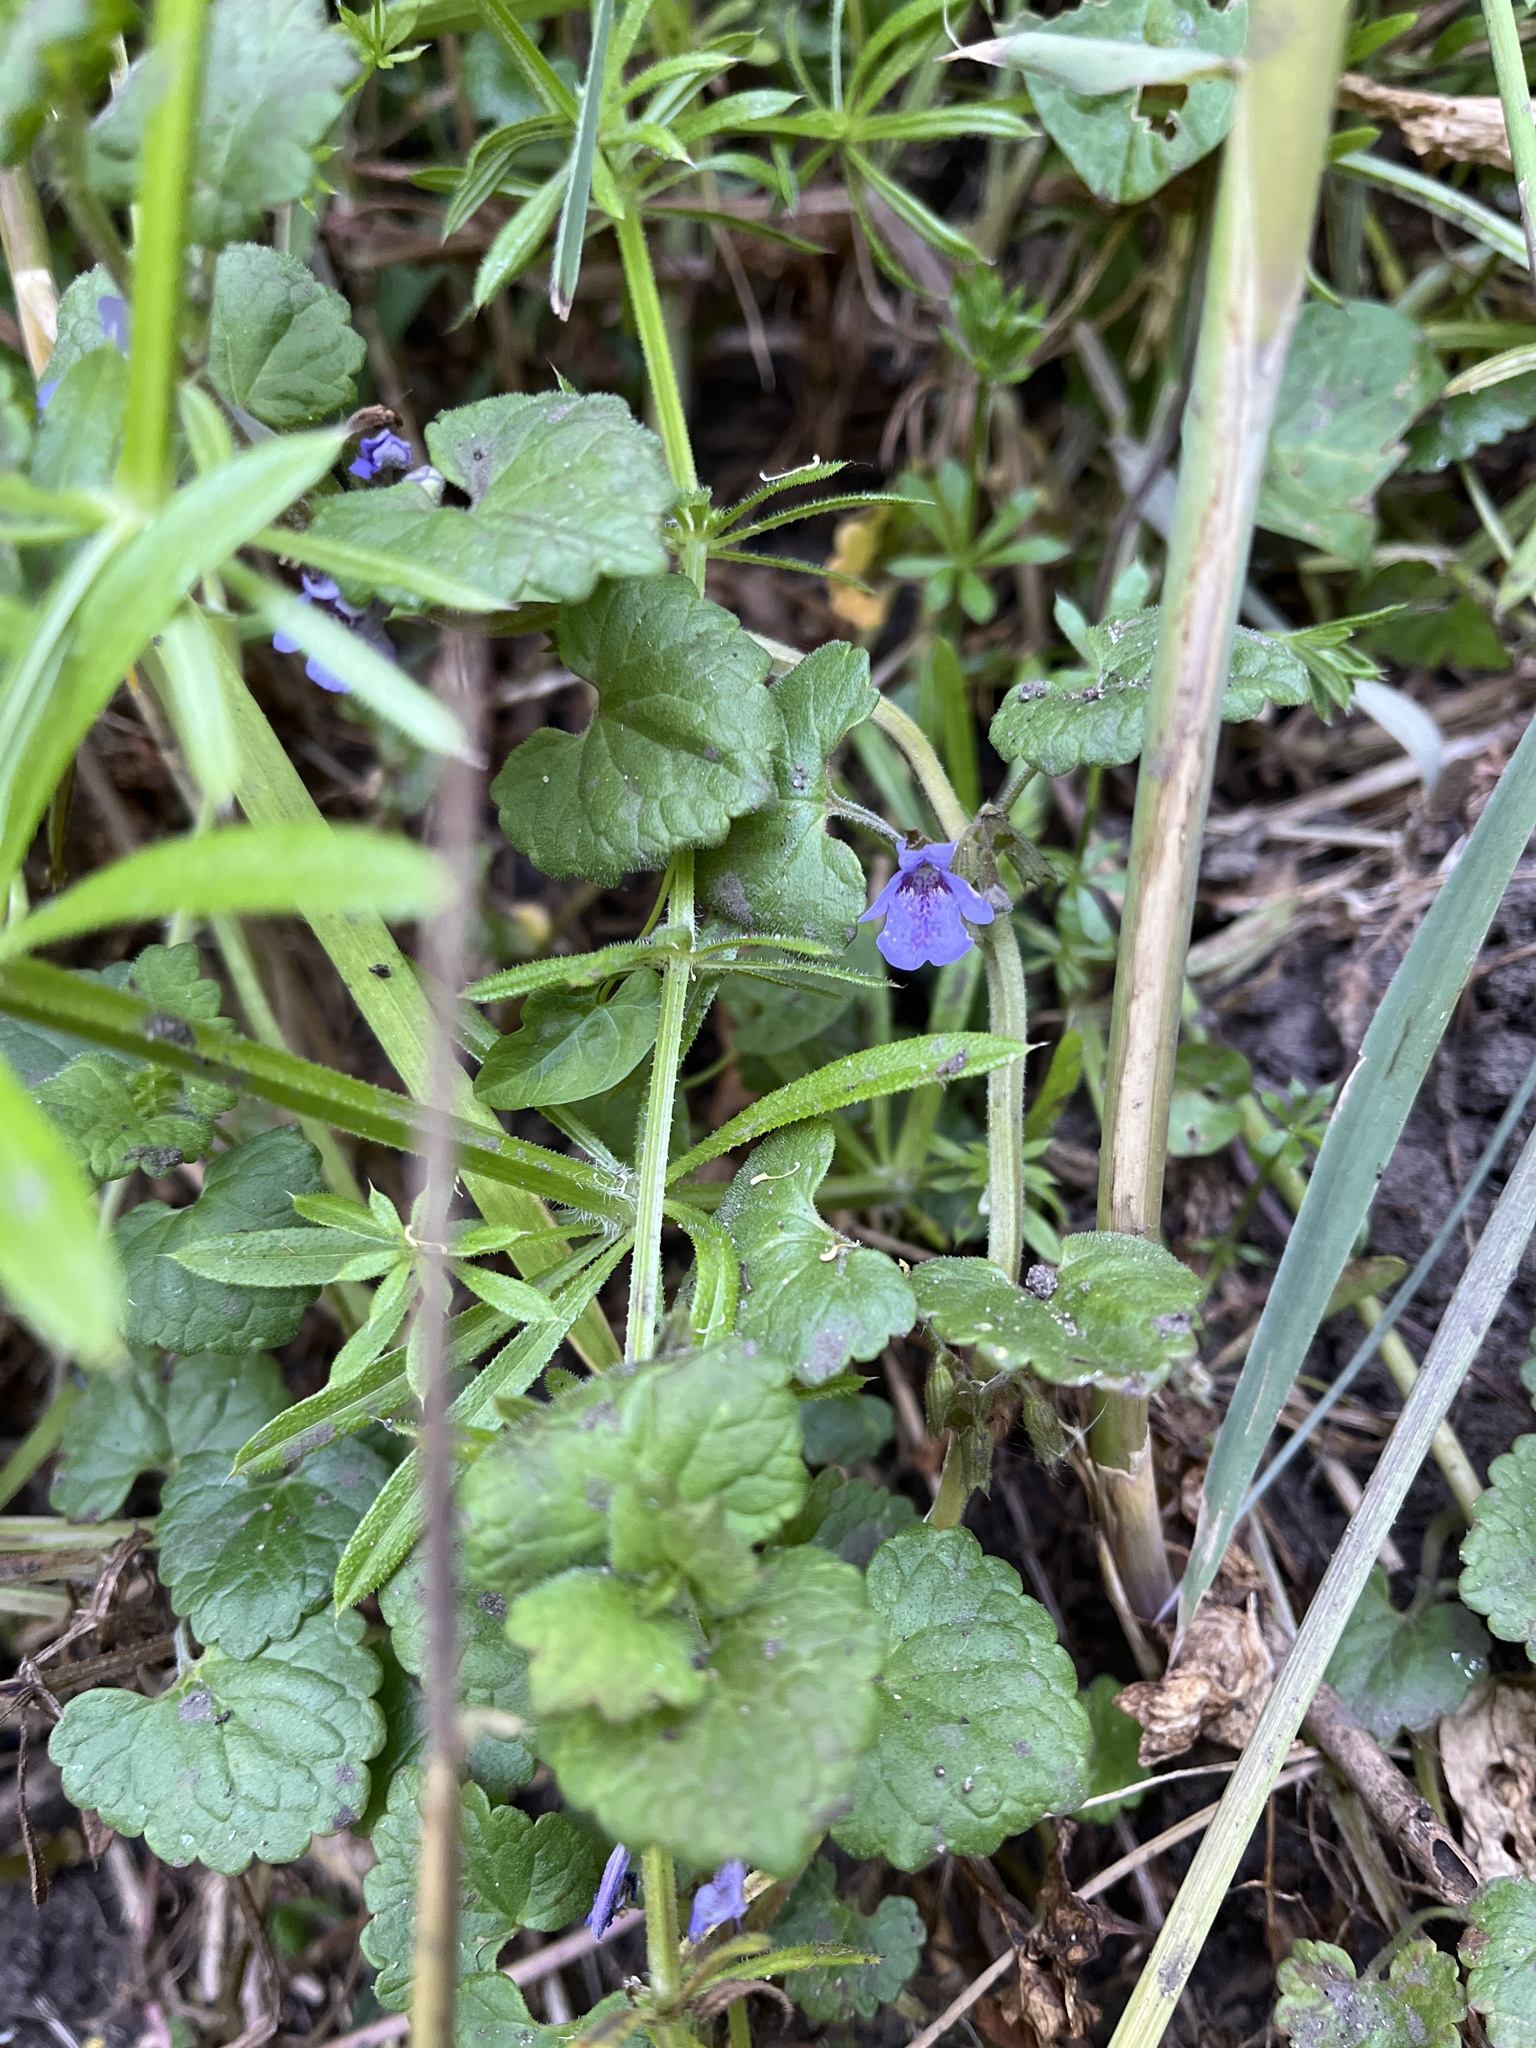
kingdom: Plantae
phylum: Tracheophyta
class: Magnoliopsida
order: Lamiales
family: Lamiaceae
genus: Glechoma
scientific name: Glechoma hederacea
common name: Ground ivy
